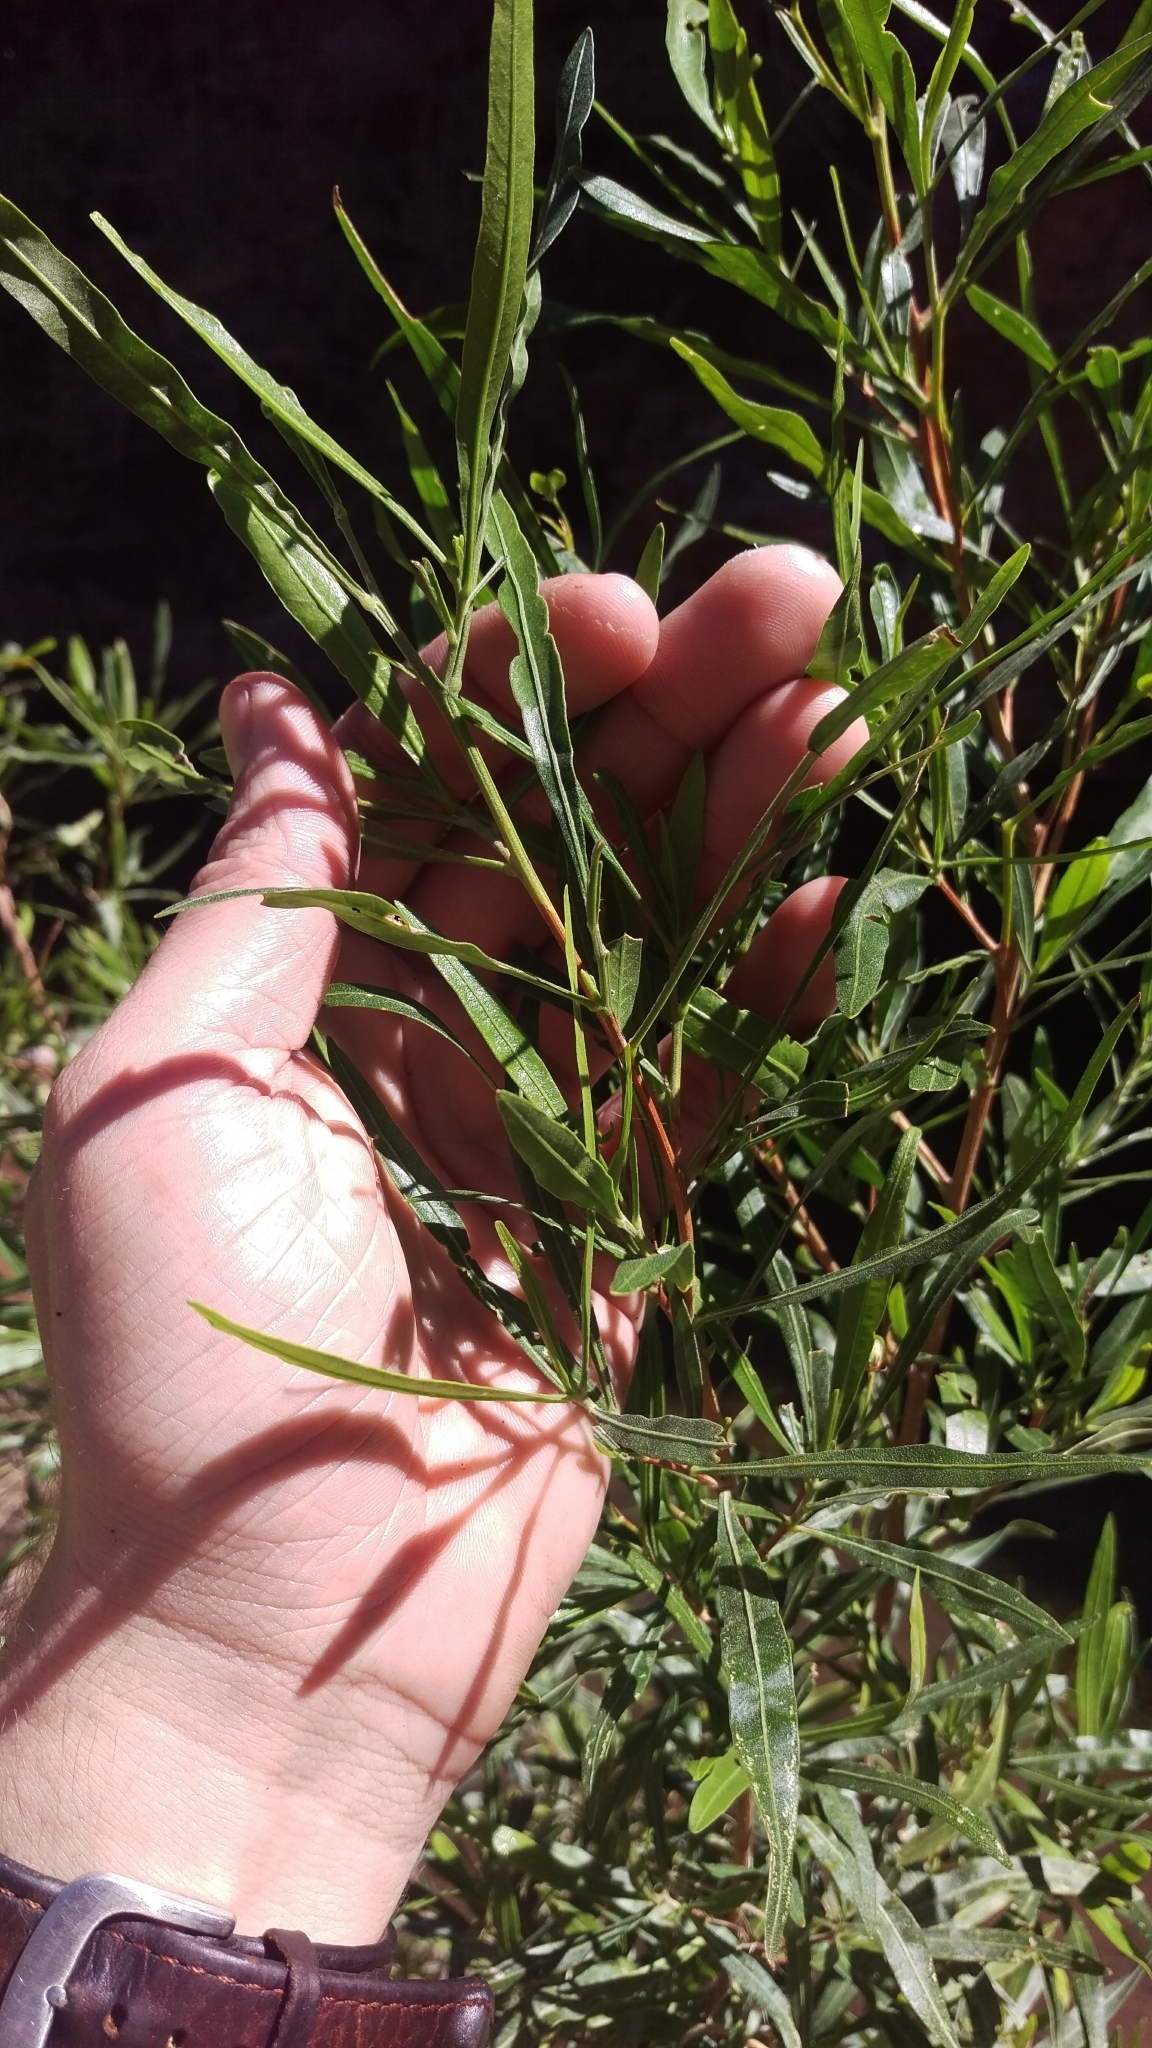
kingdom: Plantae
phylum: Tracheophyta
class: Magnoliopsida
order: Sapindales
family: Sapindaceae
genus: Dodonaea
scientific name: Dodonaea viscosa
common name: Hopbush
